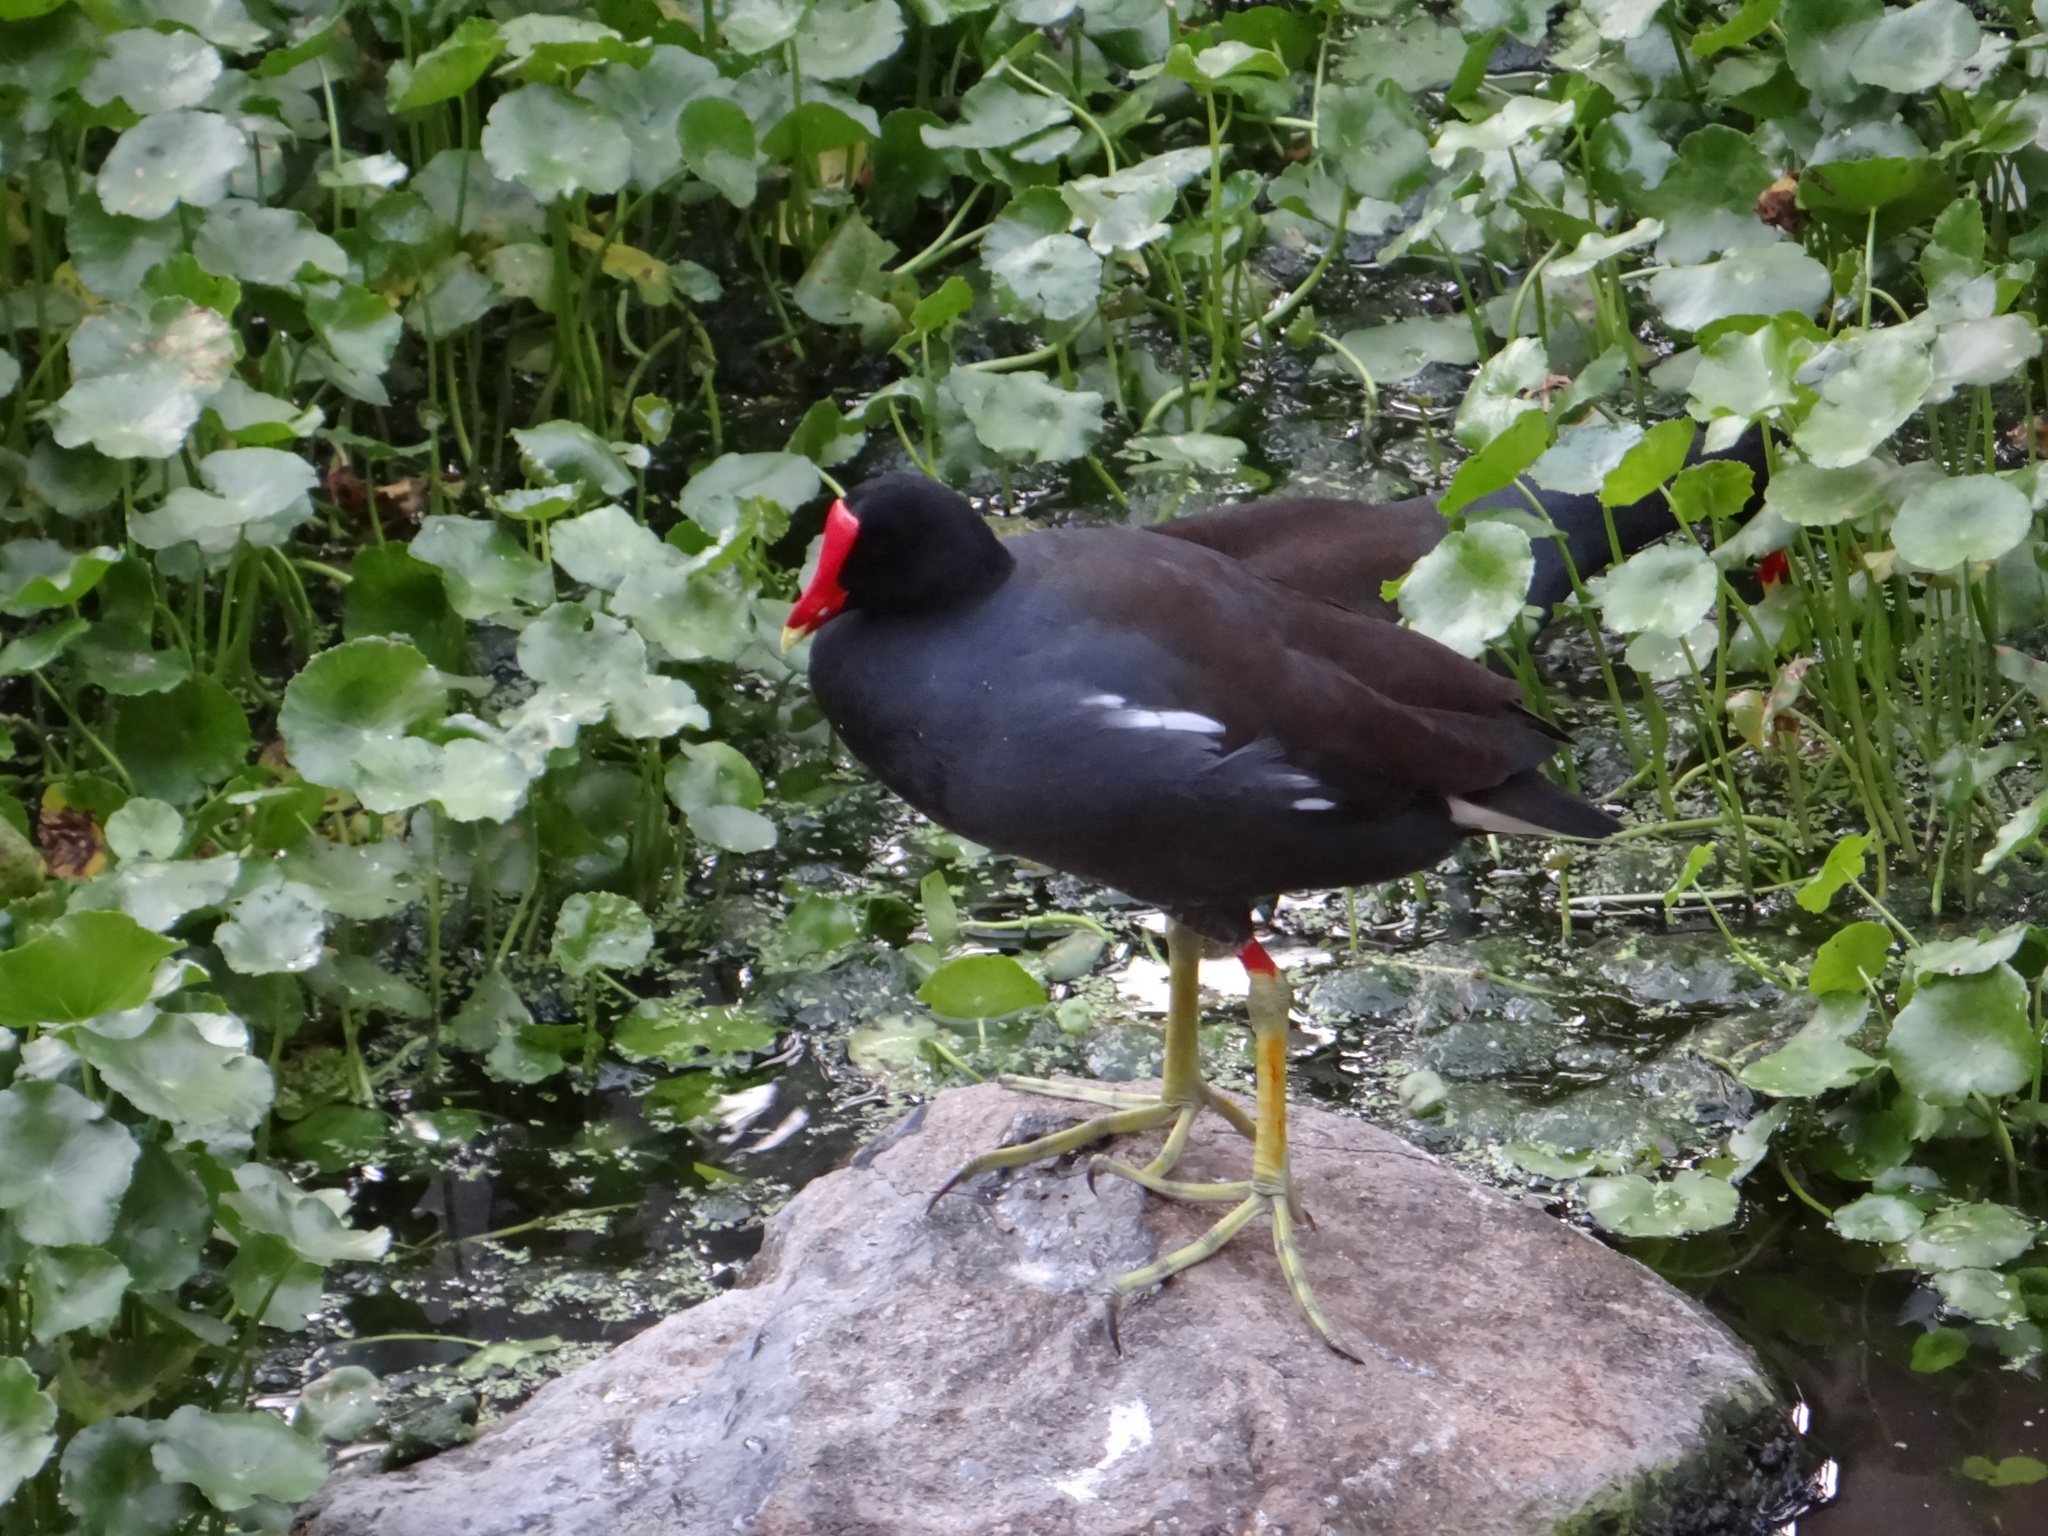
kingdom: Animalia
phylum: Chordata
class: Aves
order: Gruiformes
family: Rallidae
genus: Gallinula
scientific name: Gallinula chloropus
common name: Common moorhen
